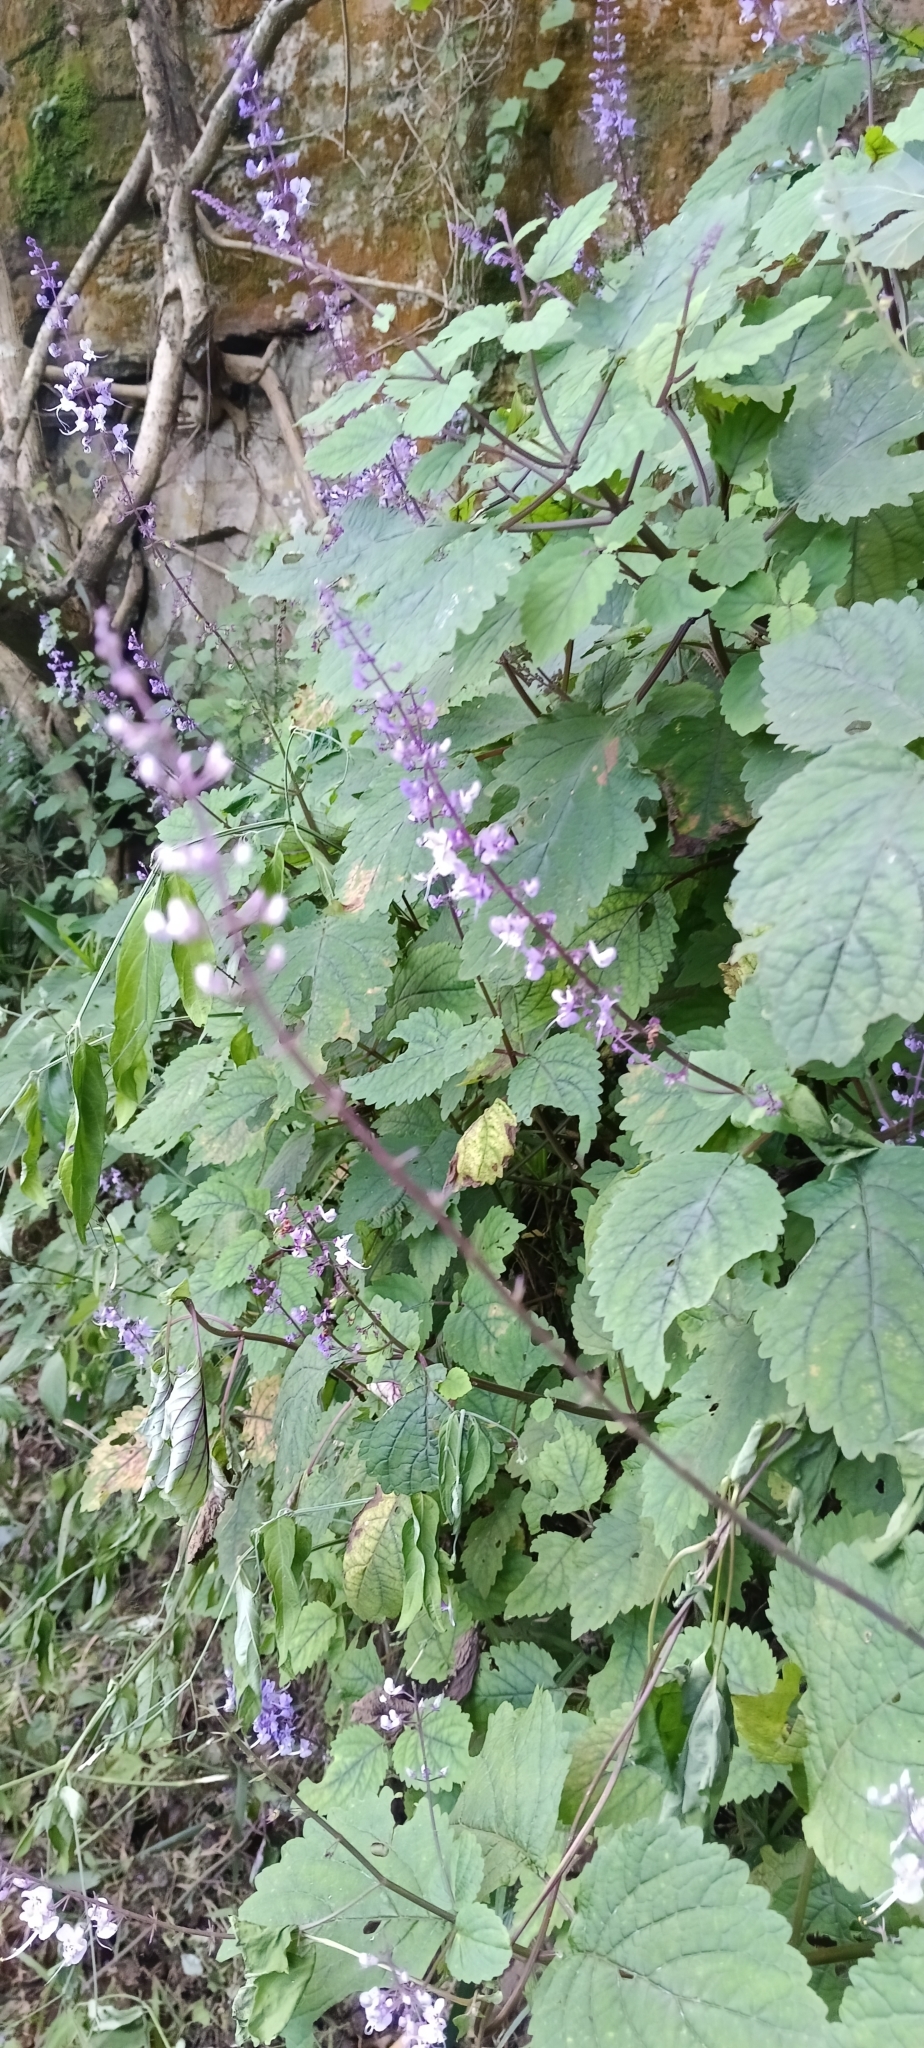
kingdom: Plantae
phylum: Tracheophyta
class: Magnoliopsida
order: Lamiales
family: Lamiaceae
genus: Plectranthus
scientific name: Plectranthus fruticosus
